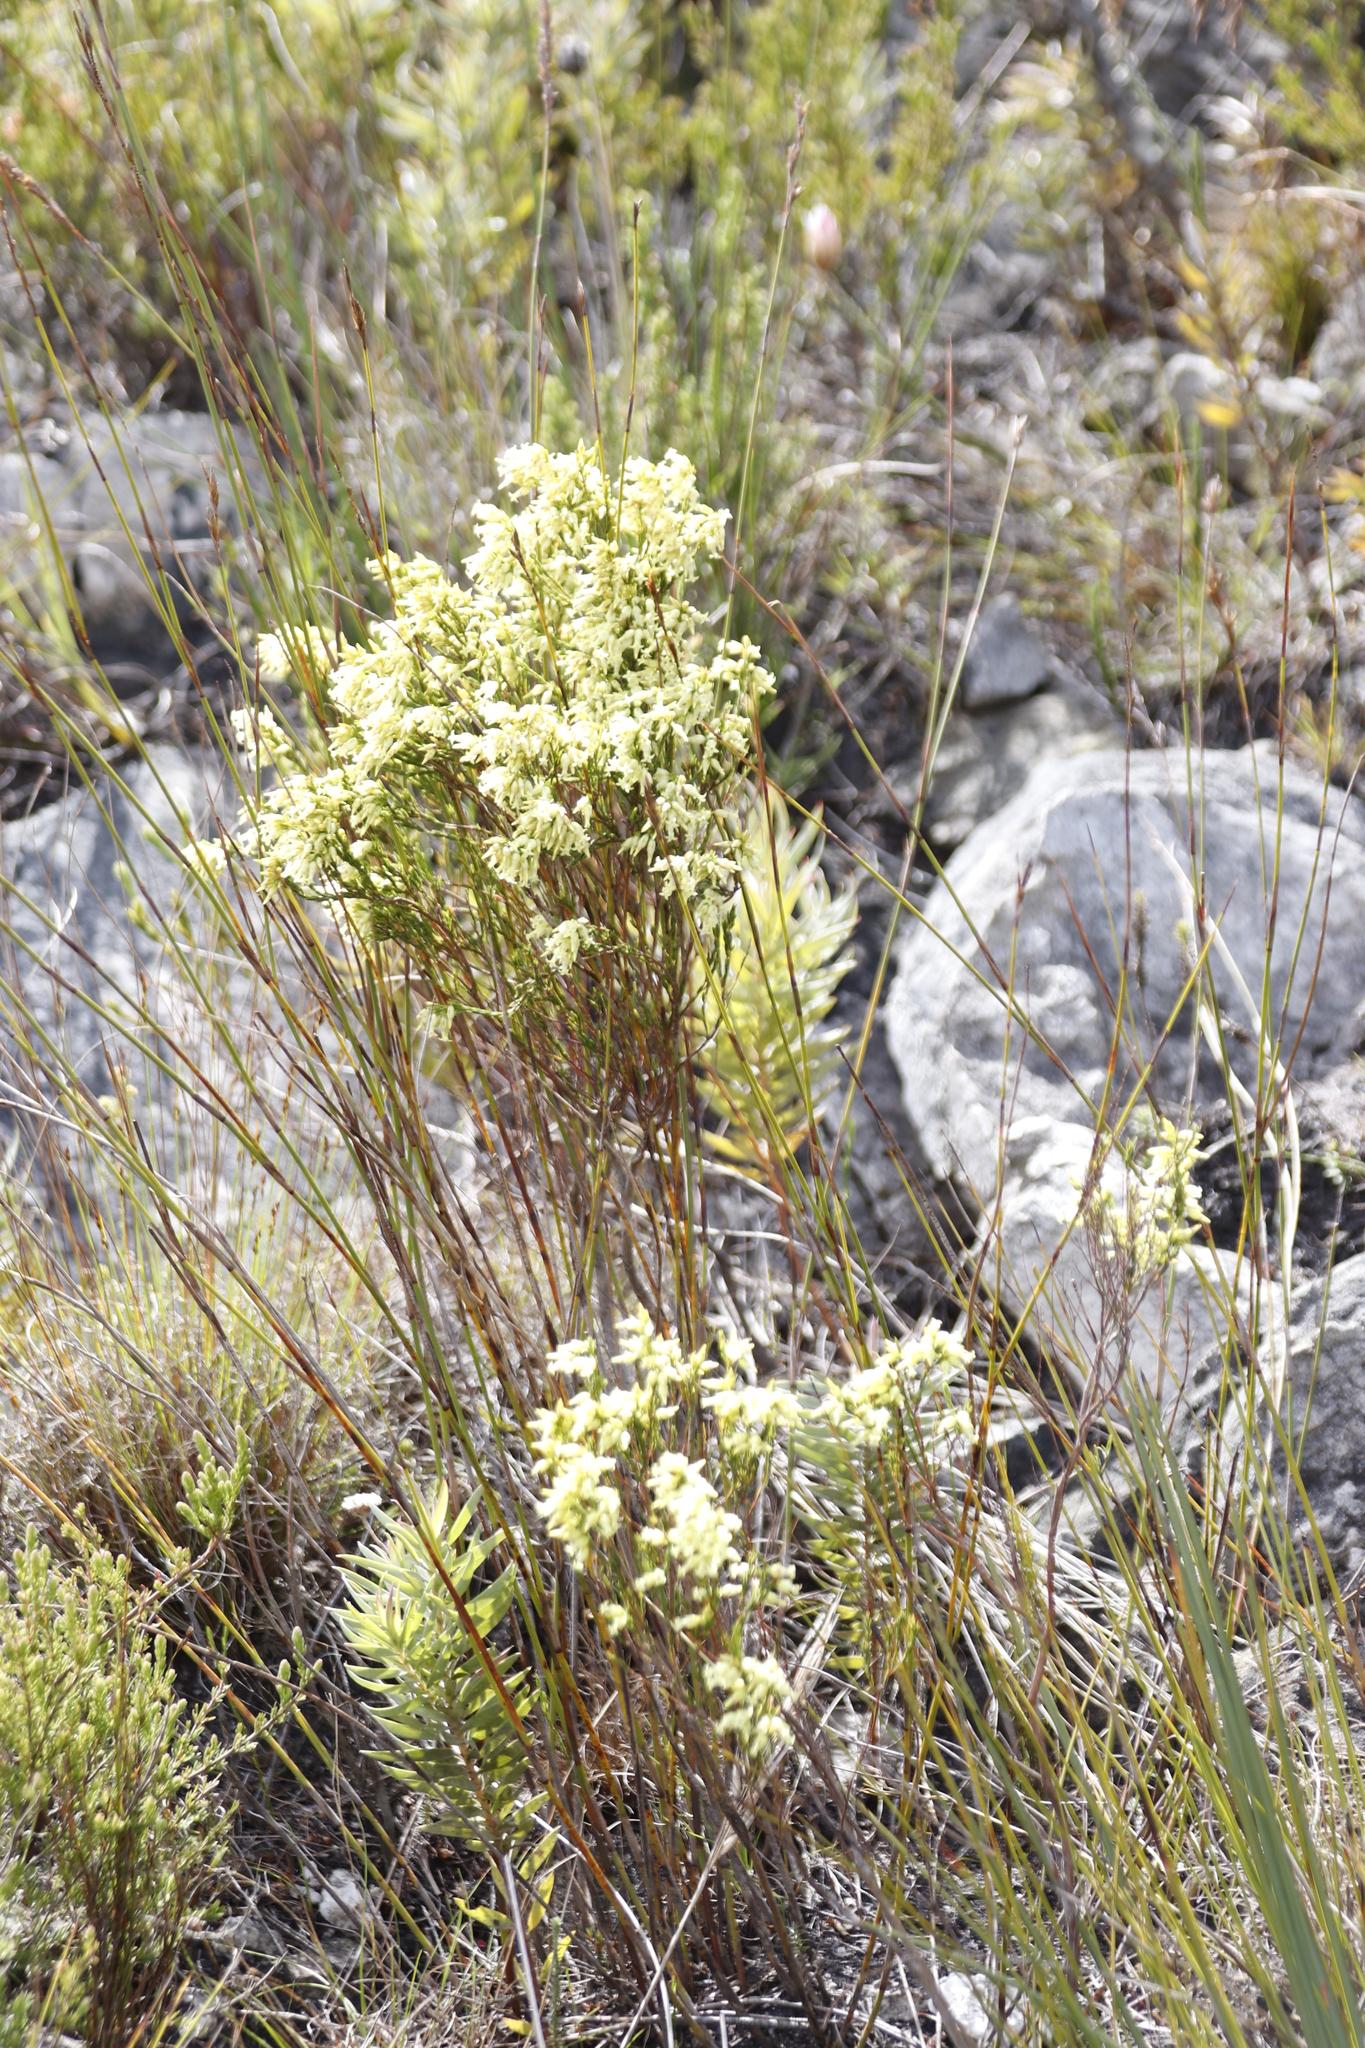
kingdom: Plantae
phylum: Tracheophyta
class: Magnoliopsida
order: Ericales
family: Ericaceae
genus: Erica
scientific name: Erica lutea
